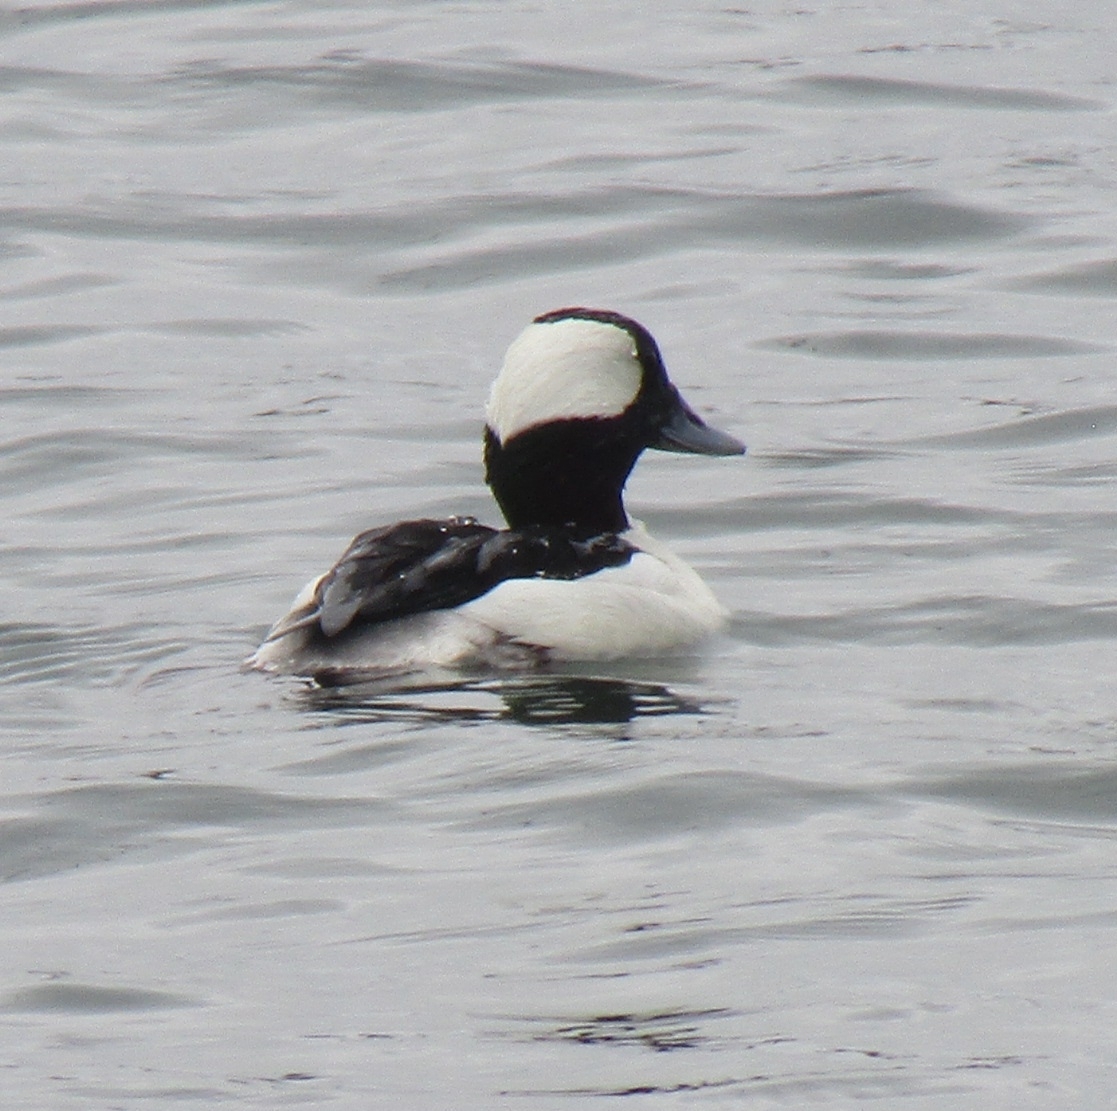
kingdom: Animalia
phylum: Chordata
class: Aves
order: Anseriformes
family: Anatidae
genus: Bucephala
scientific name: Bucephala albeola
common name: Bufflehead
